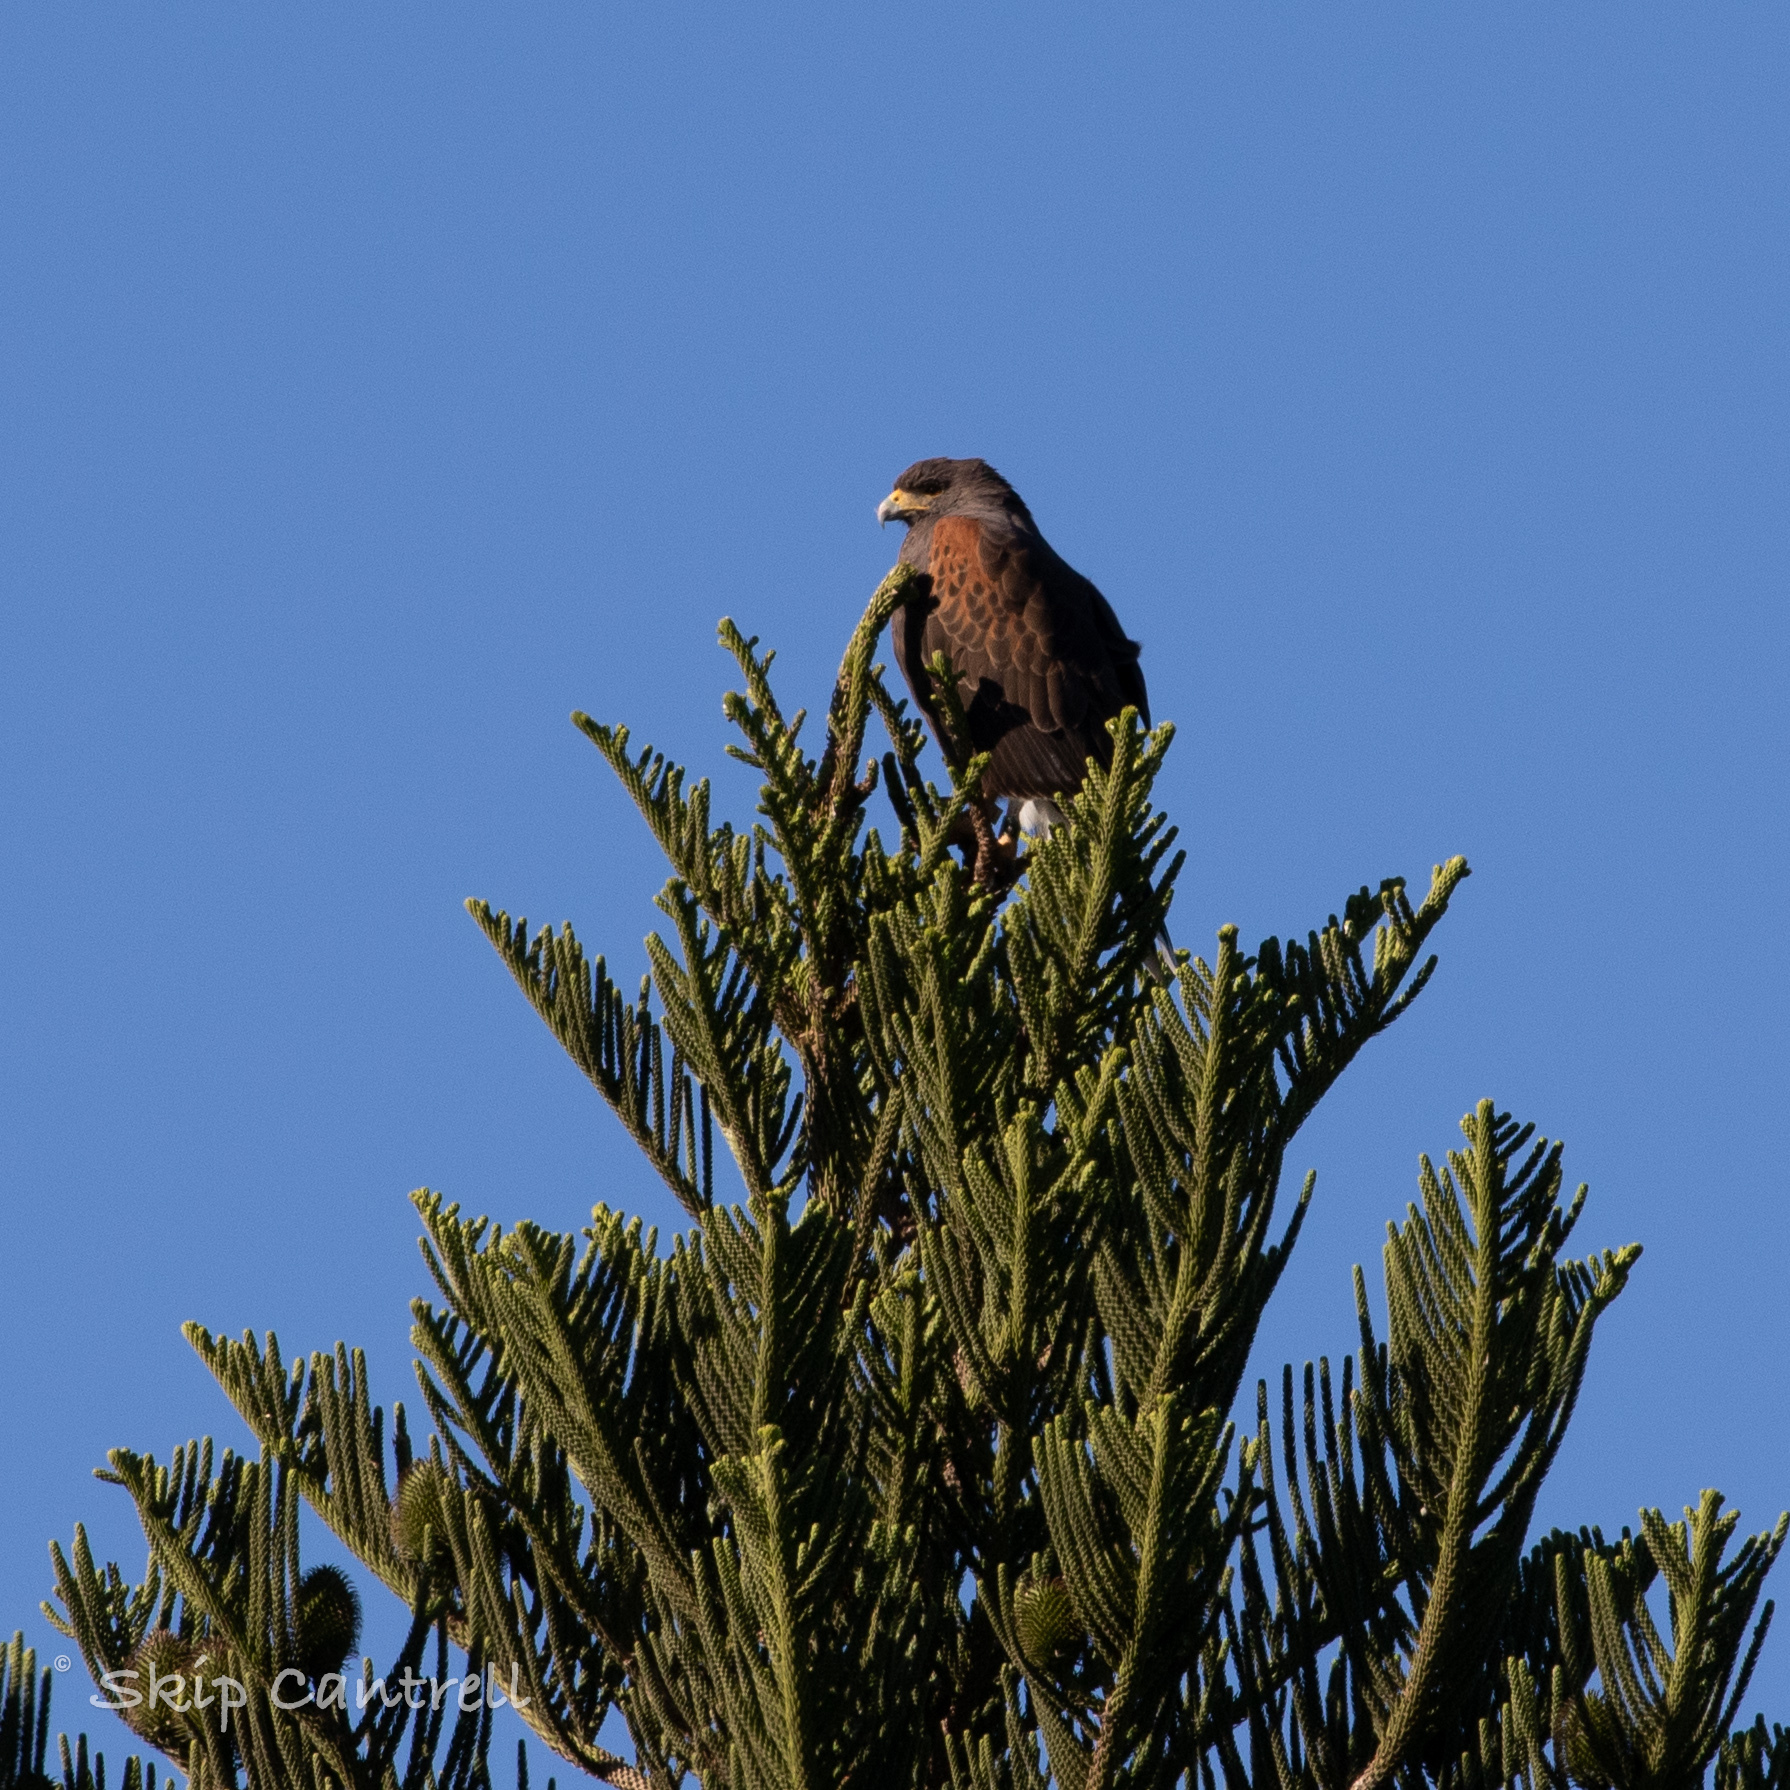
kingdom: Animalia
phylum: Chordata
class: Aves
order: Accipitriformes
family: Accipitridae
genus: Parabuteo
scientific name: Parabuteo unicinctus
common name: Harris's hawk
